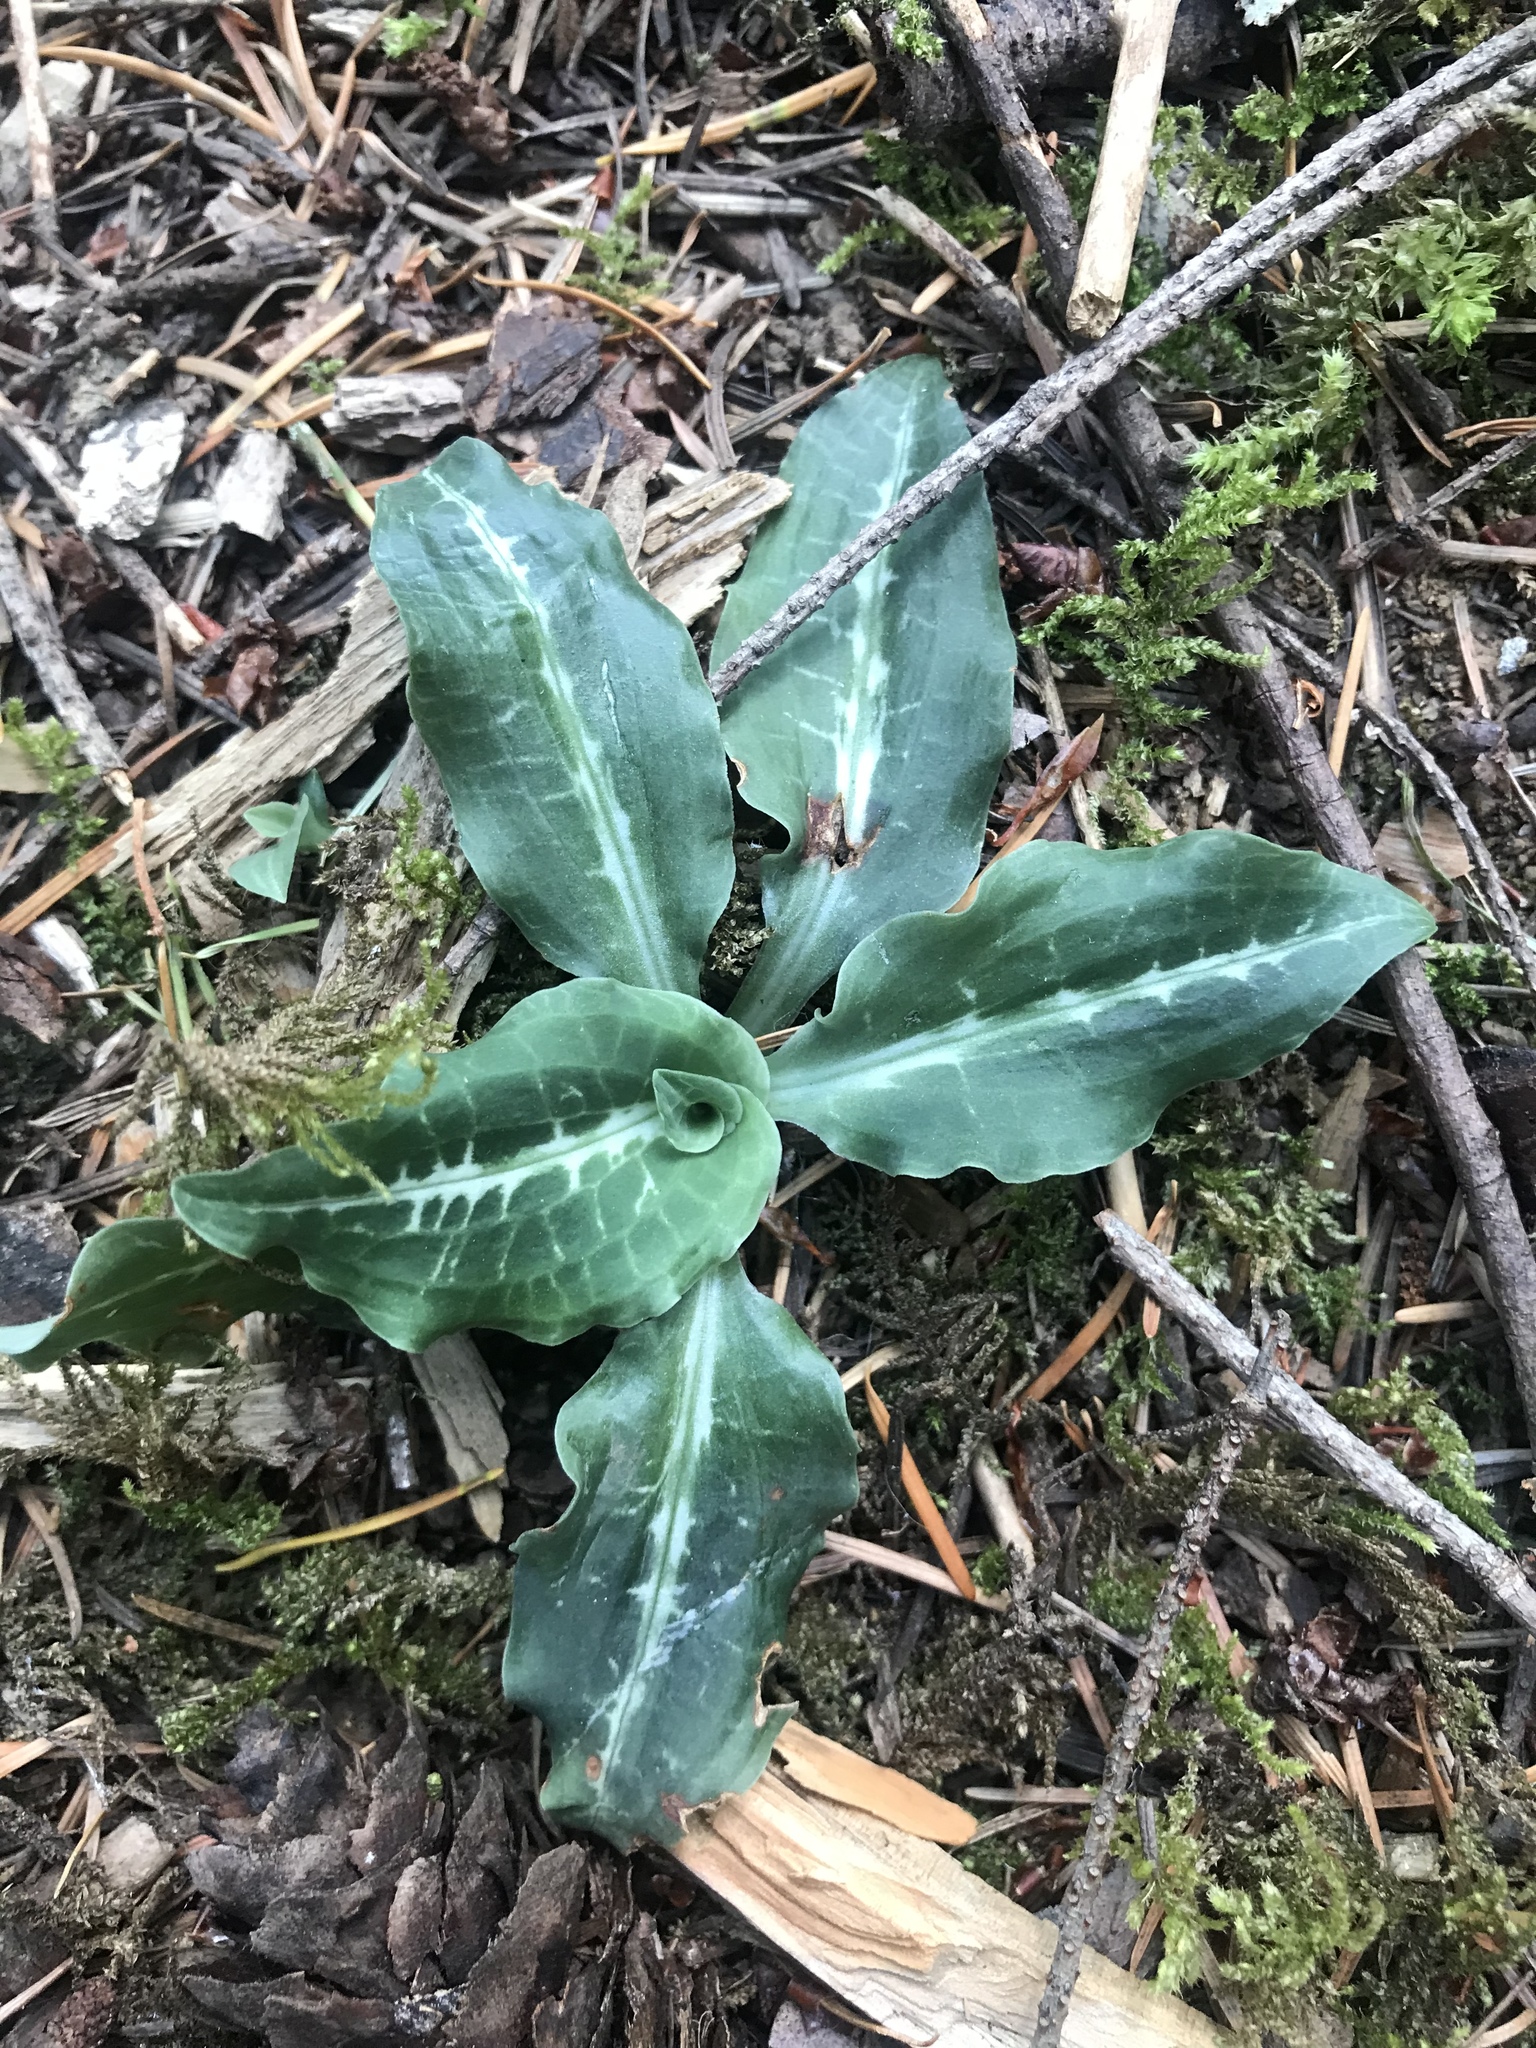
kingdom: Plantae
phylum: Tracheophyta
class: Liliopsida
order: Asparagales
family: Orchidaceae
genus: Goodyera
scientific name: Goodyera oblongifolia
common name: Giant rattlesnake-plantain
